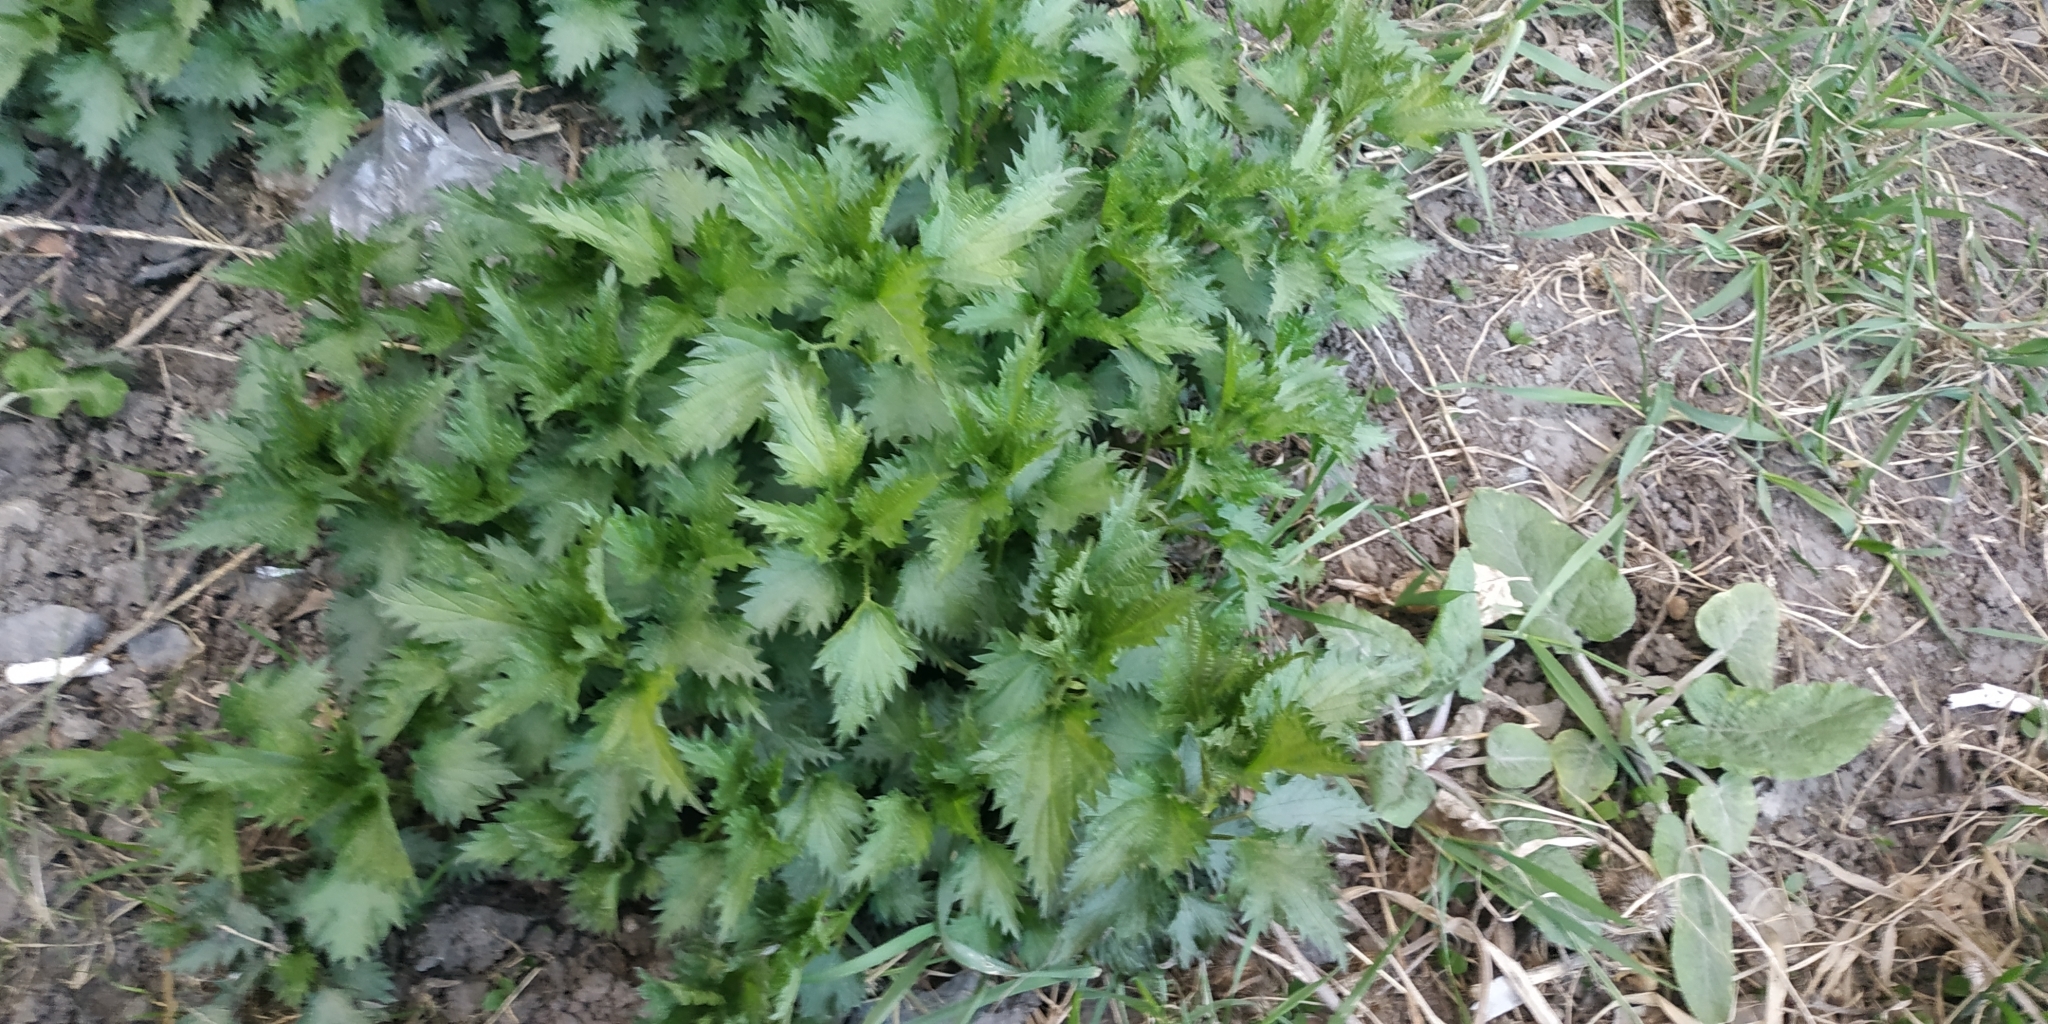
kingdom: Plantae
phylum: Tracheophyta
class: Magnoliopsida
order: Rosales
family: Urticaceae
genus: Urtica
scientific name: Urtica dioica
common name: Common nettle
